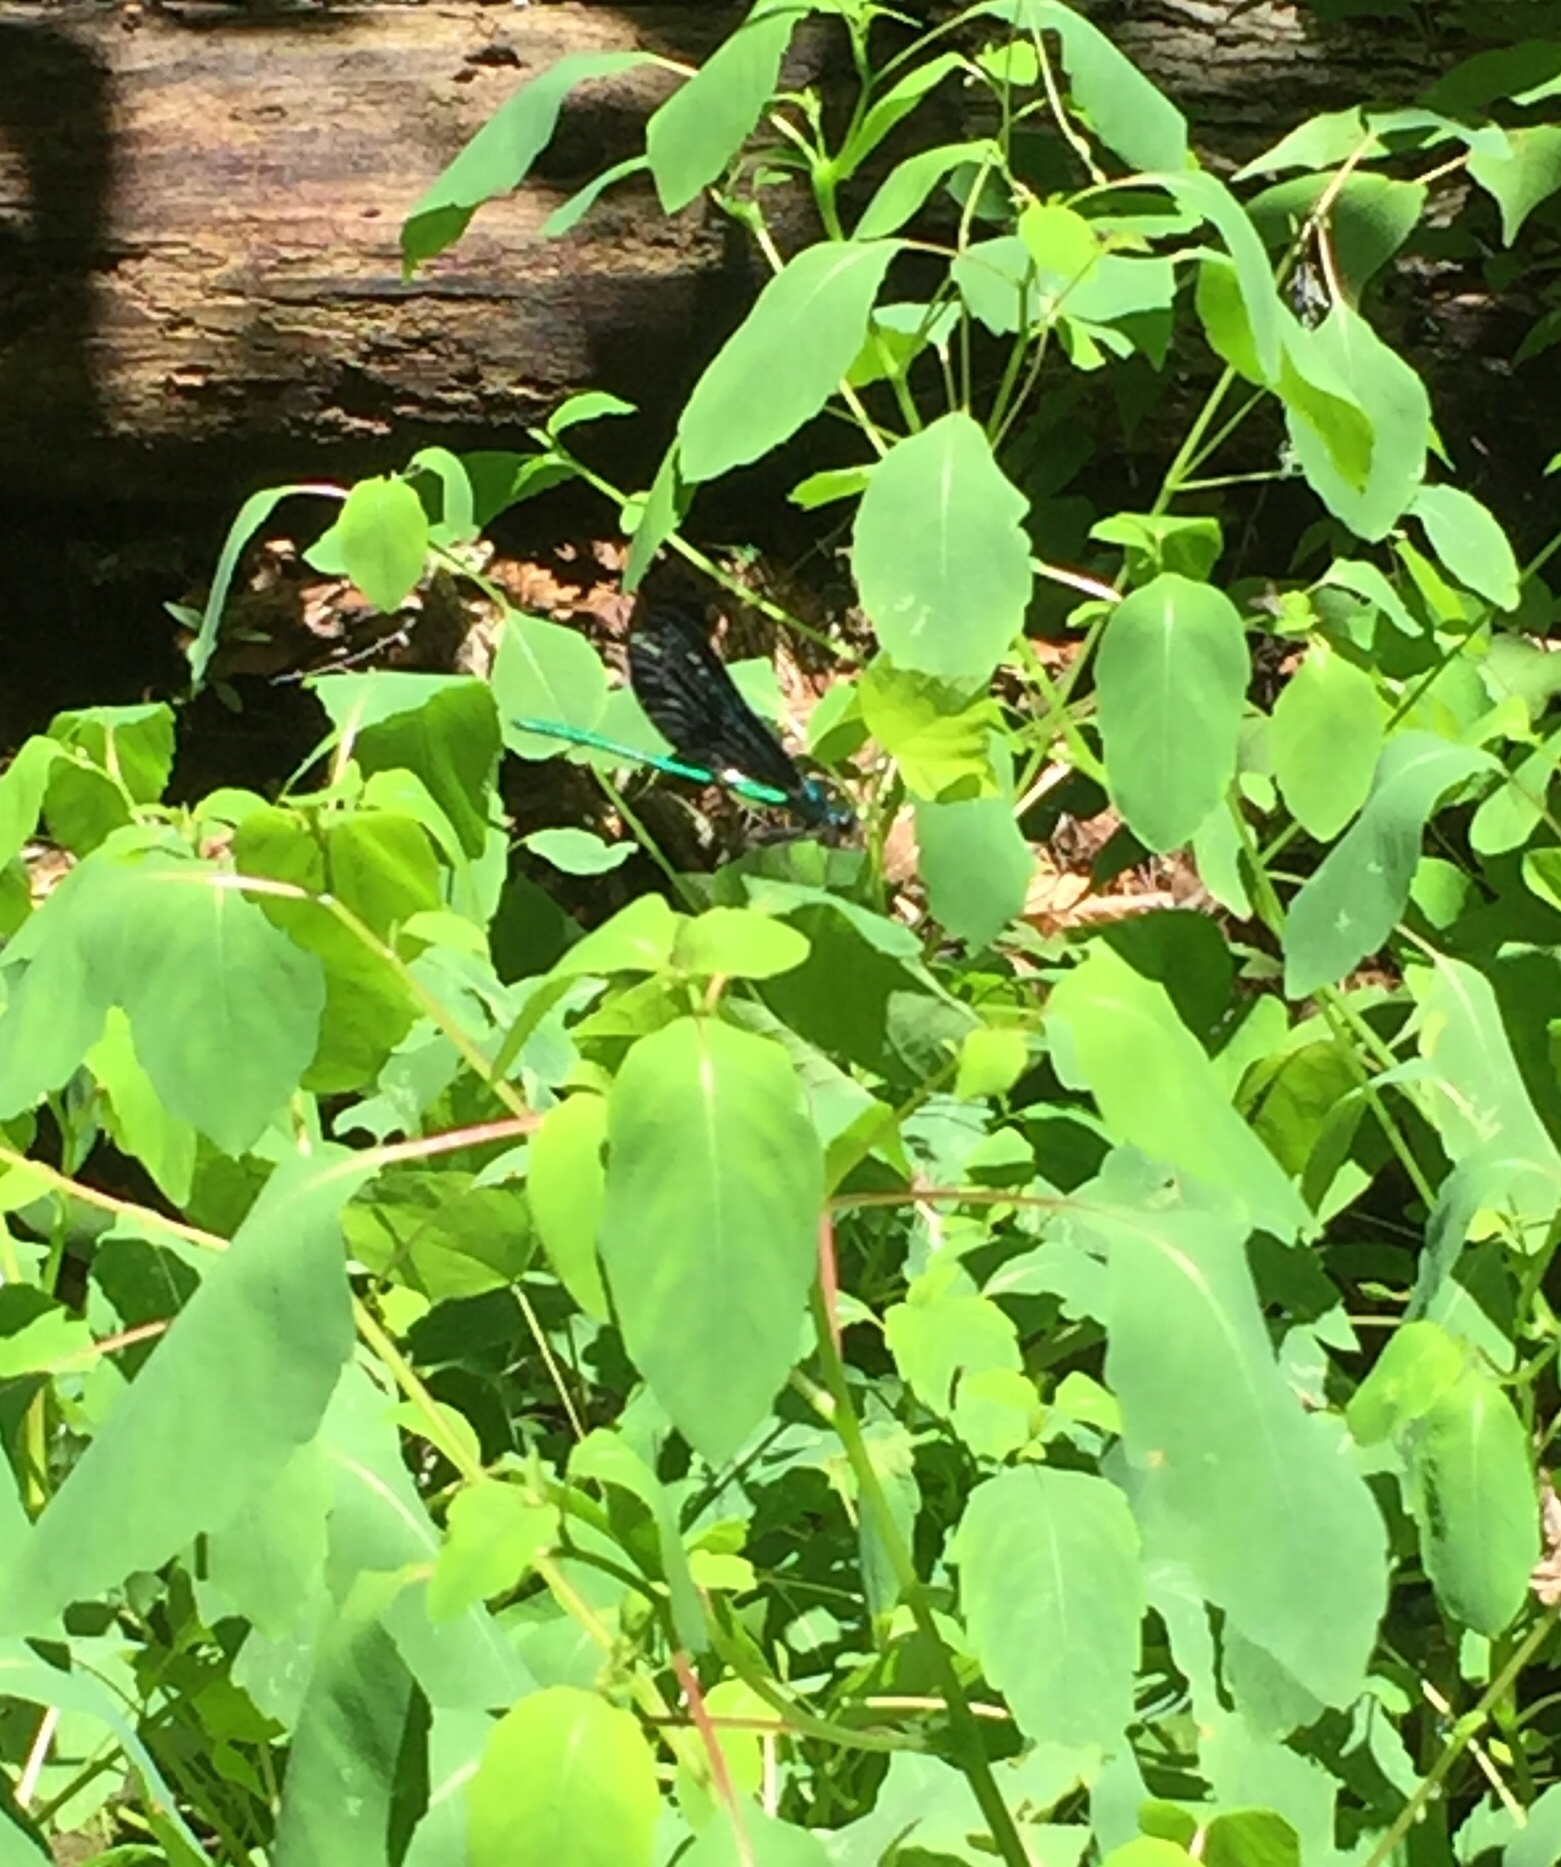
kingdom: Animalia
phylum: Arthropoda
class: Insecta
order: Odonata
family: Calopterygidae
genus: Calopteryx
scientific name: Calopteryx maculata
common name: Ebony jewelwing
